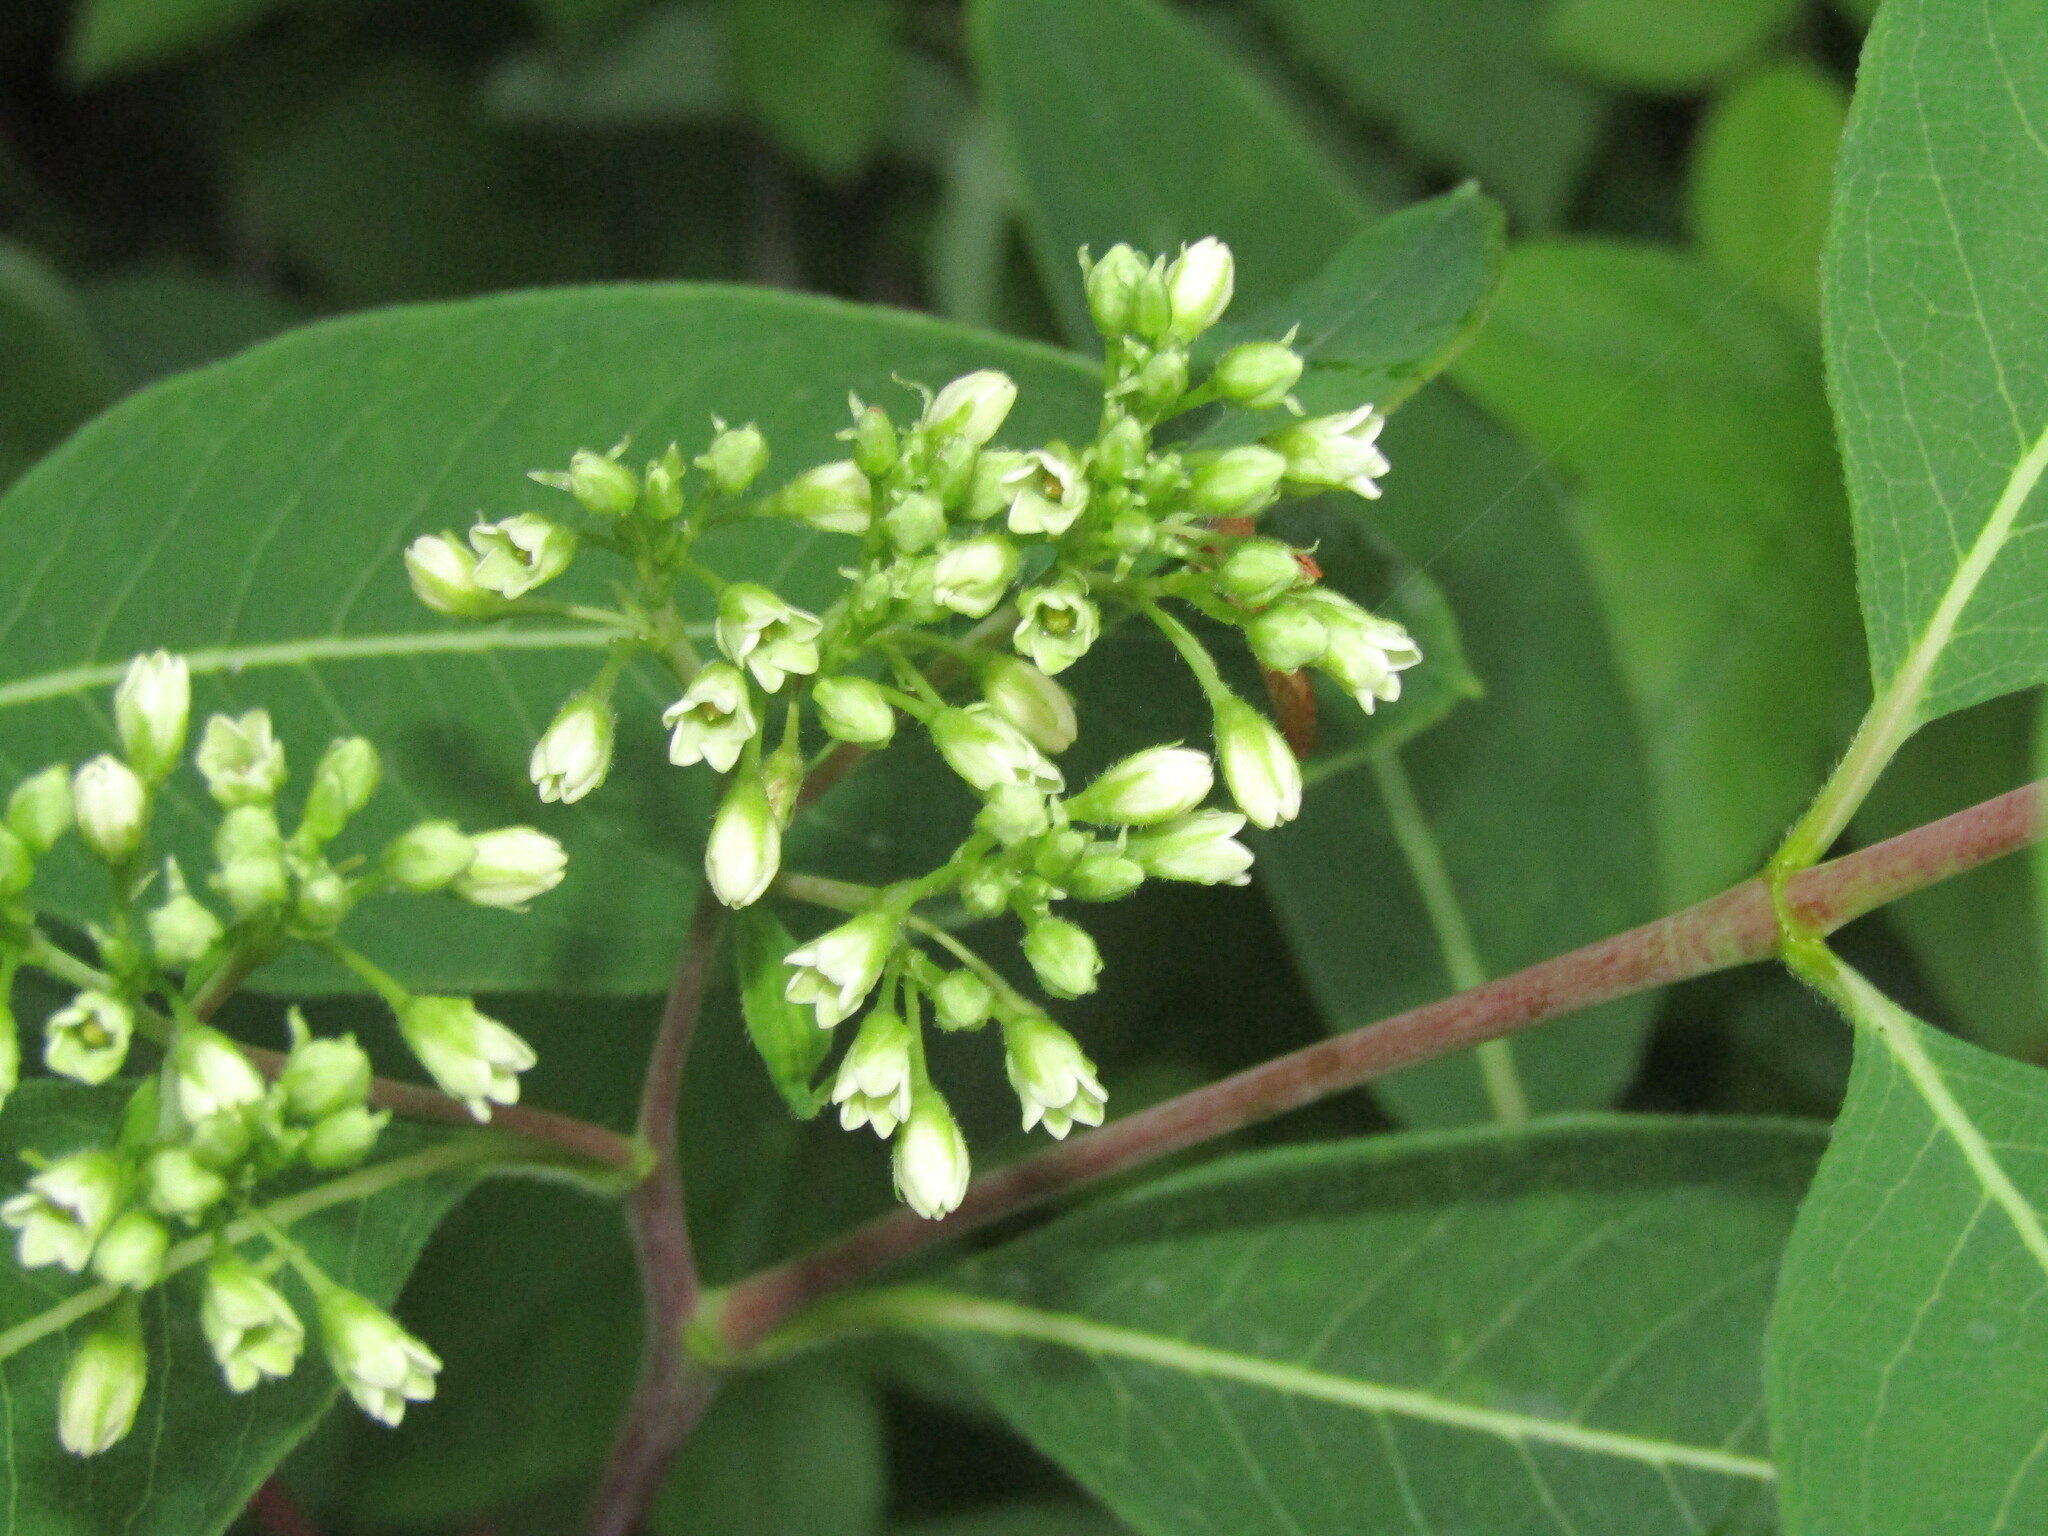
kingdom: Plantae
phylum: Tracheophyta
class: Magnoliopsida
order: Gentianales
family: Apocynaceae
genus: Apocynum
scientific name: Apocynum cannabinum
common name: Hemp dogbane
